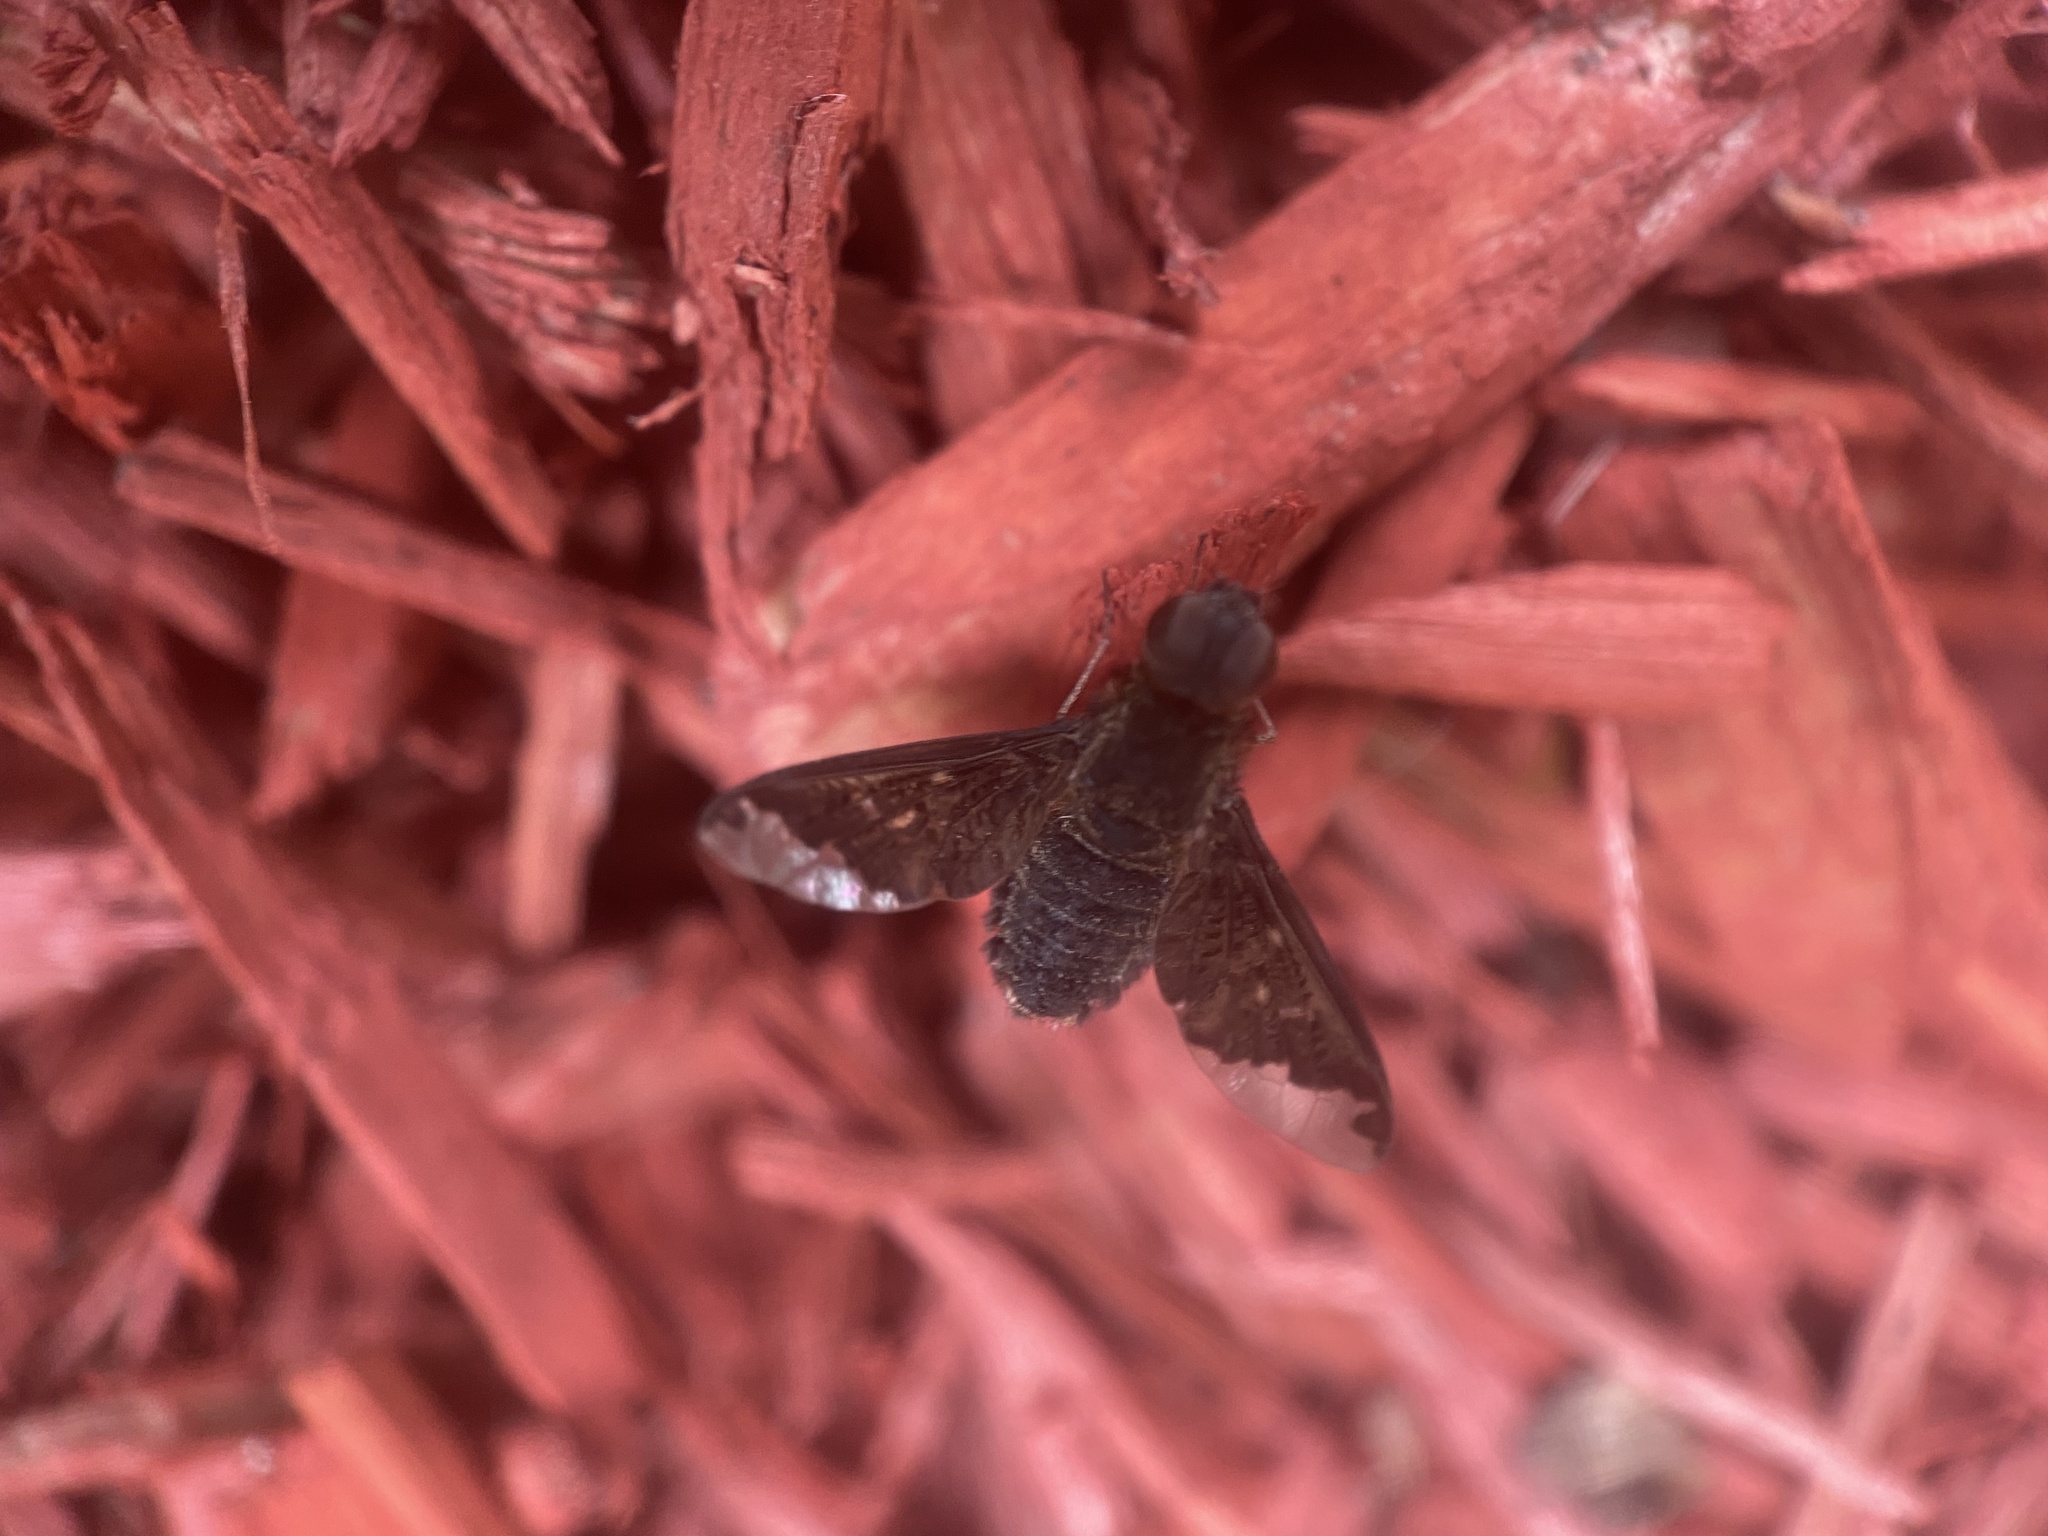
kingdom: Animalia
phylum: Arthropoda
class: Insecta
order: Diptera
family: Bombyliidae
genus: Hemipenthes
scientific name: Hemipenthes sinuosus
